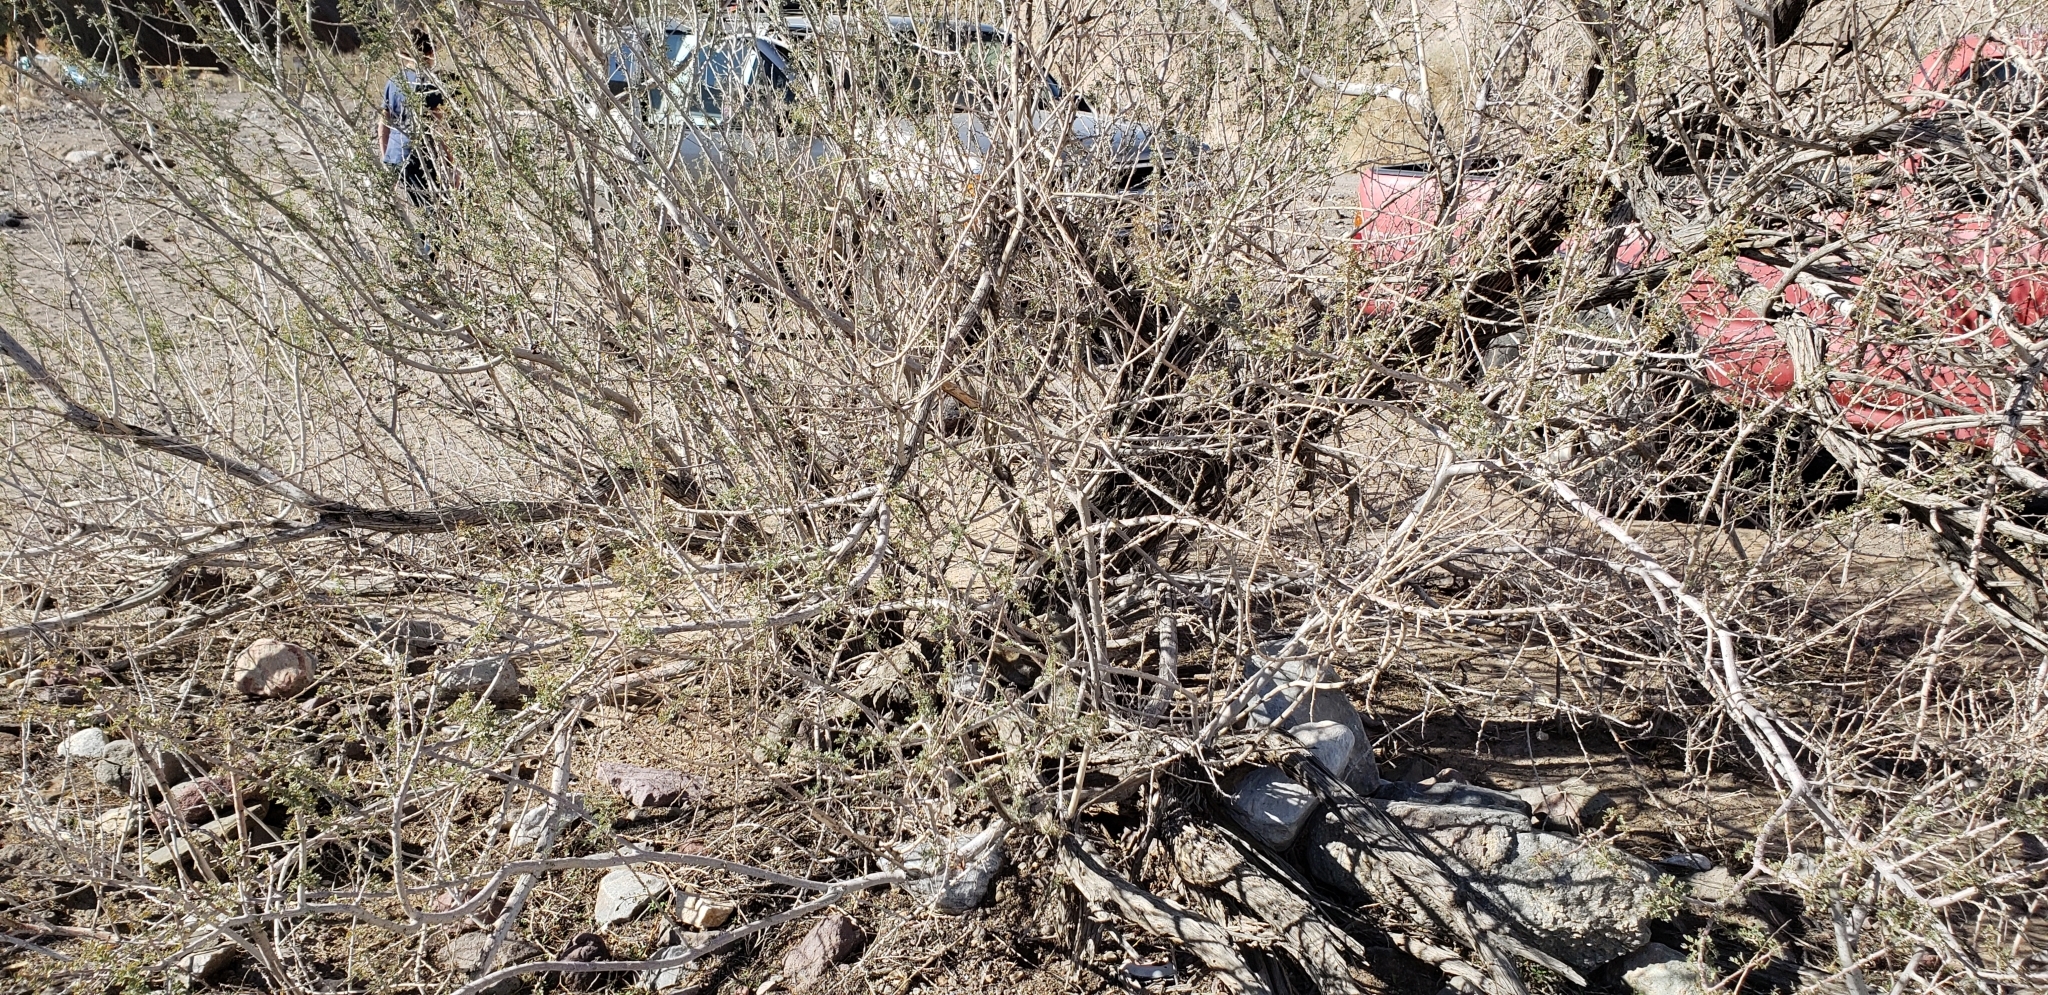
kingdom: Plantae
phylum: Tracheophyta
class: Magnoliopsida
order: Fabales
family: Fabaceae
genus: Senegalia
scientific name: Senegalia greggii
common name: Texas-mimosa
